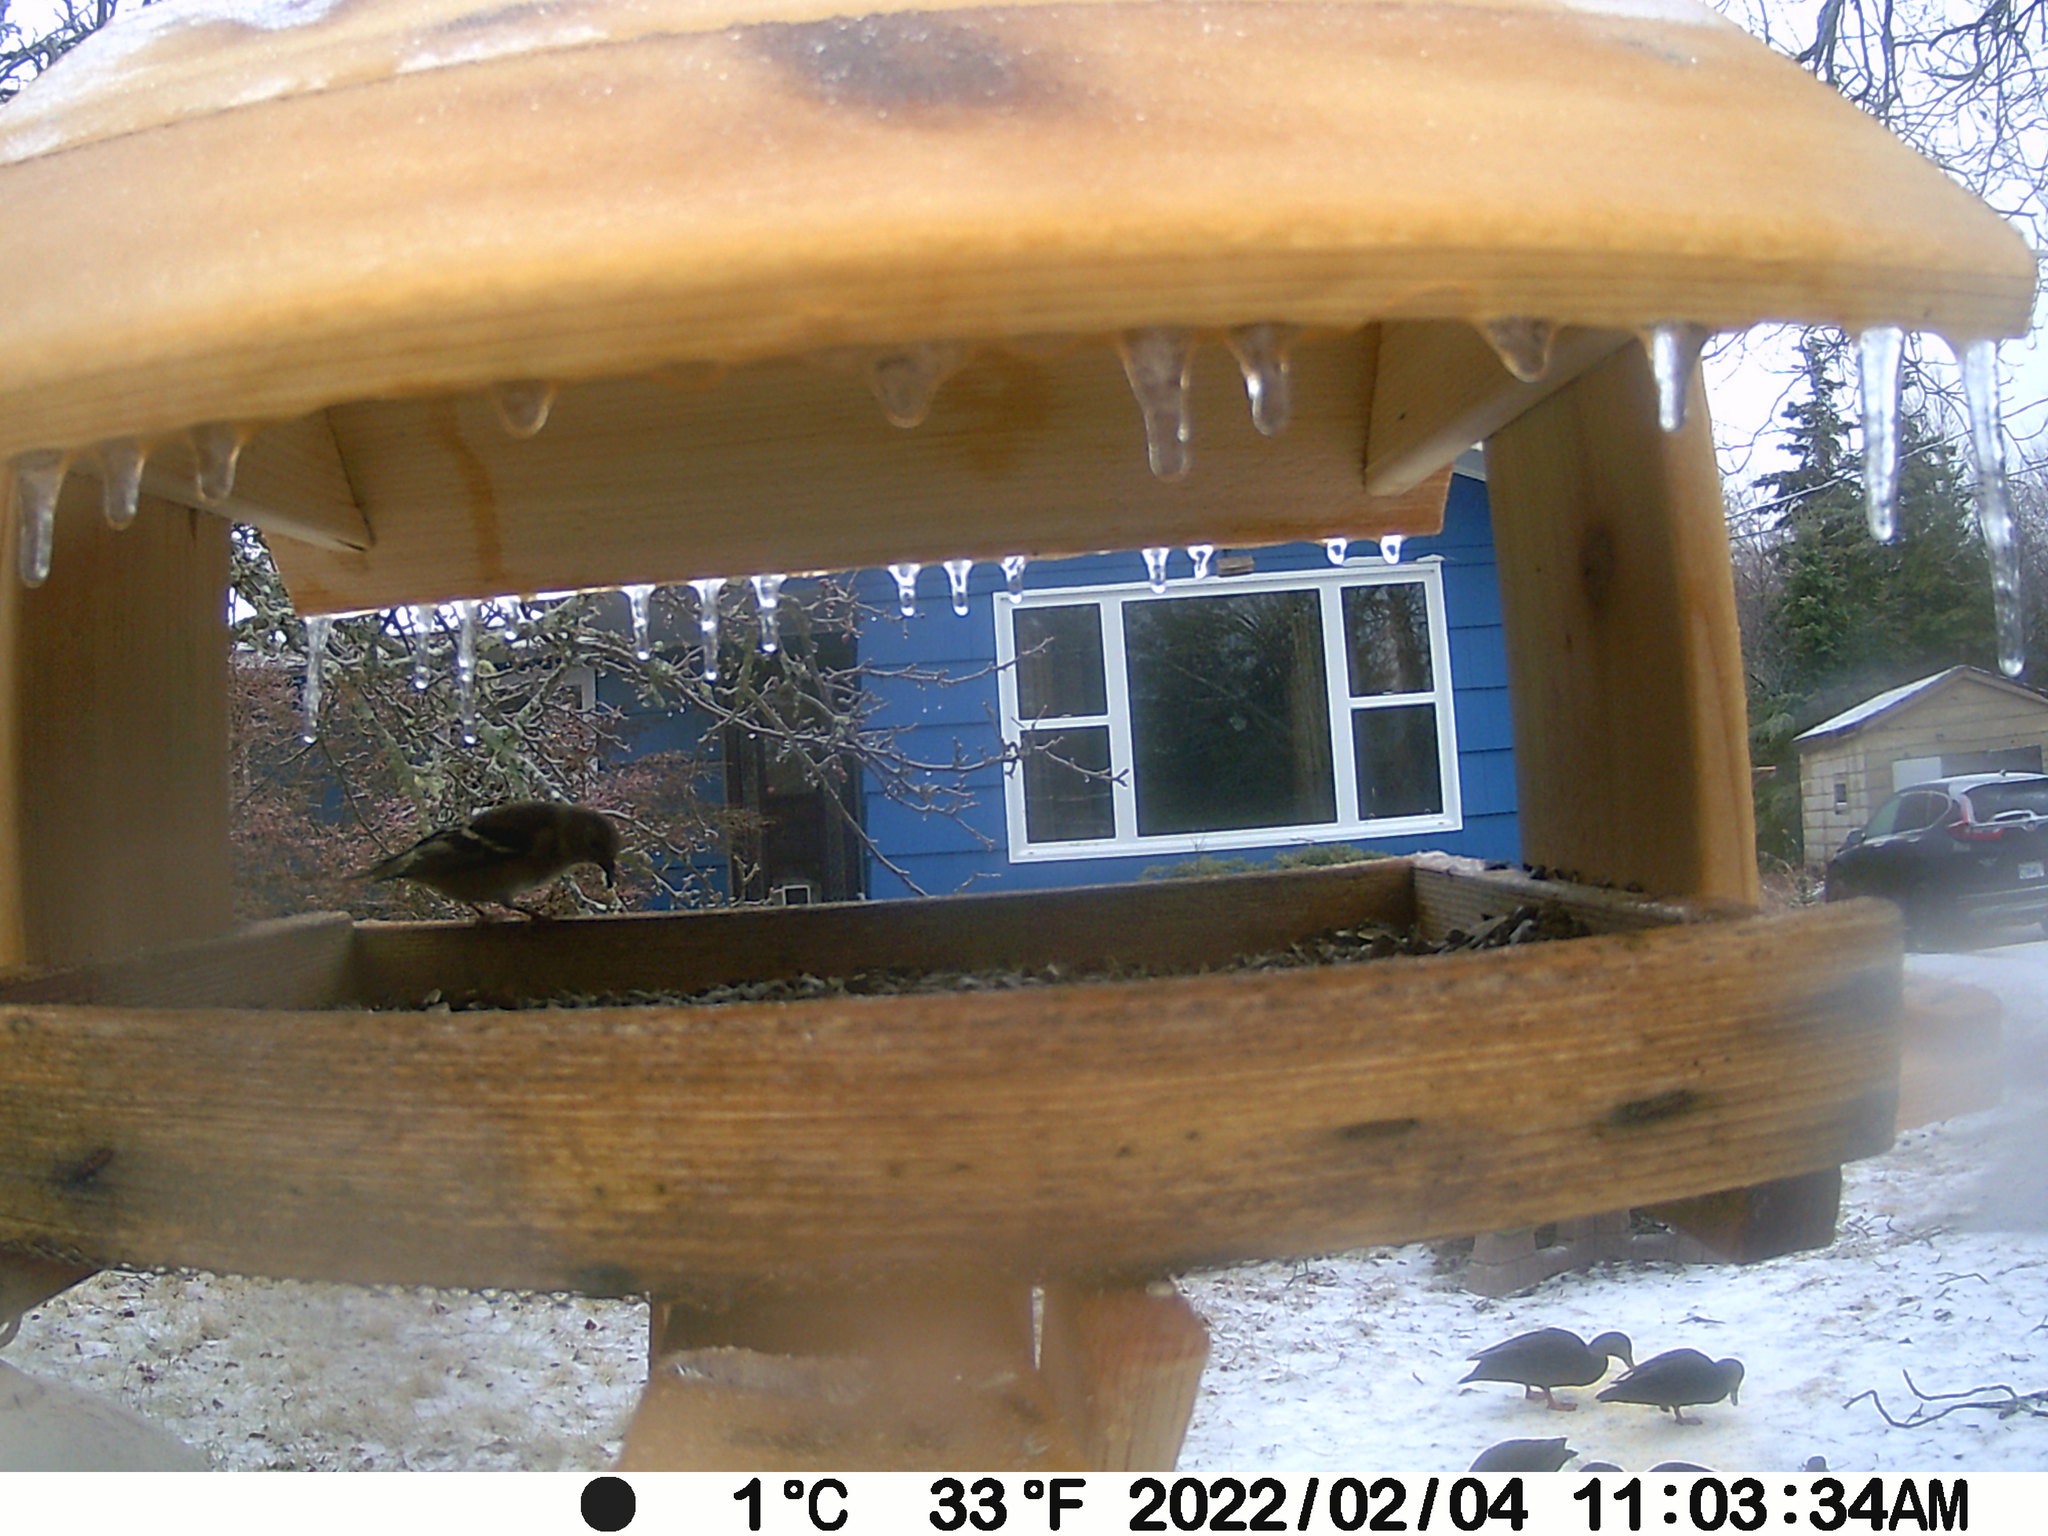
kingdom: Animalia
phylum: Chordata
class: Aves
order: Anseriformes
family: Anatidae
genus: Anas
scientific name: Anas rubripes
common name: American black duck
